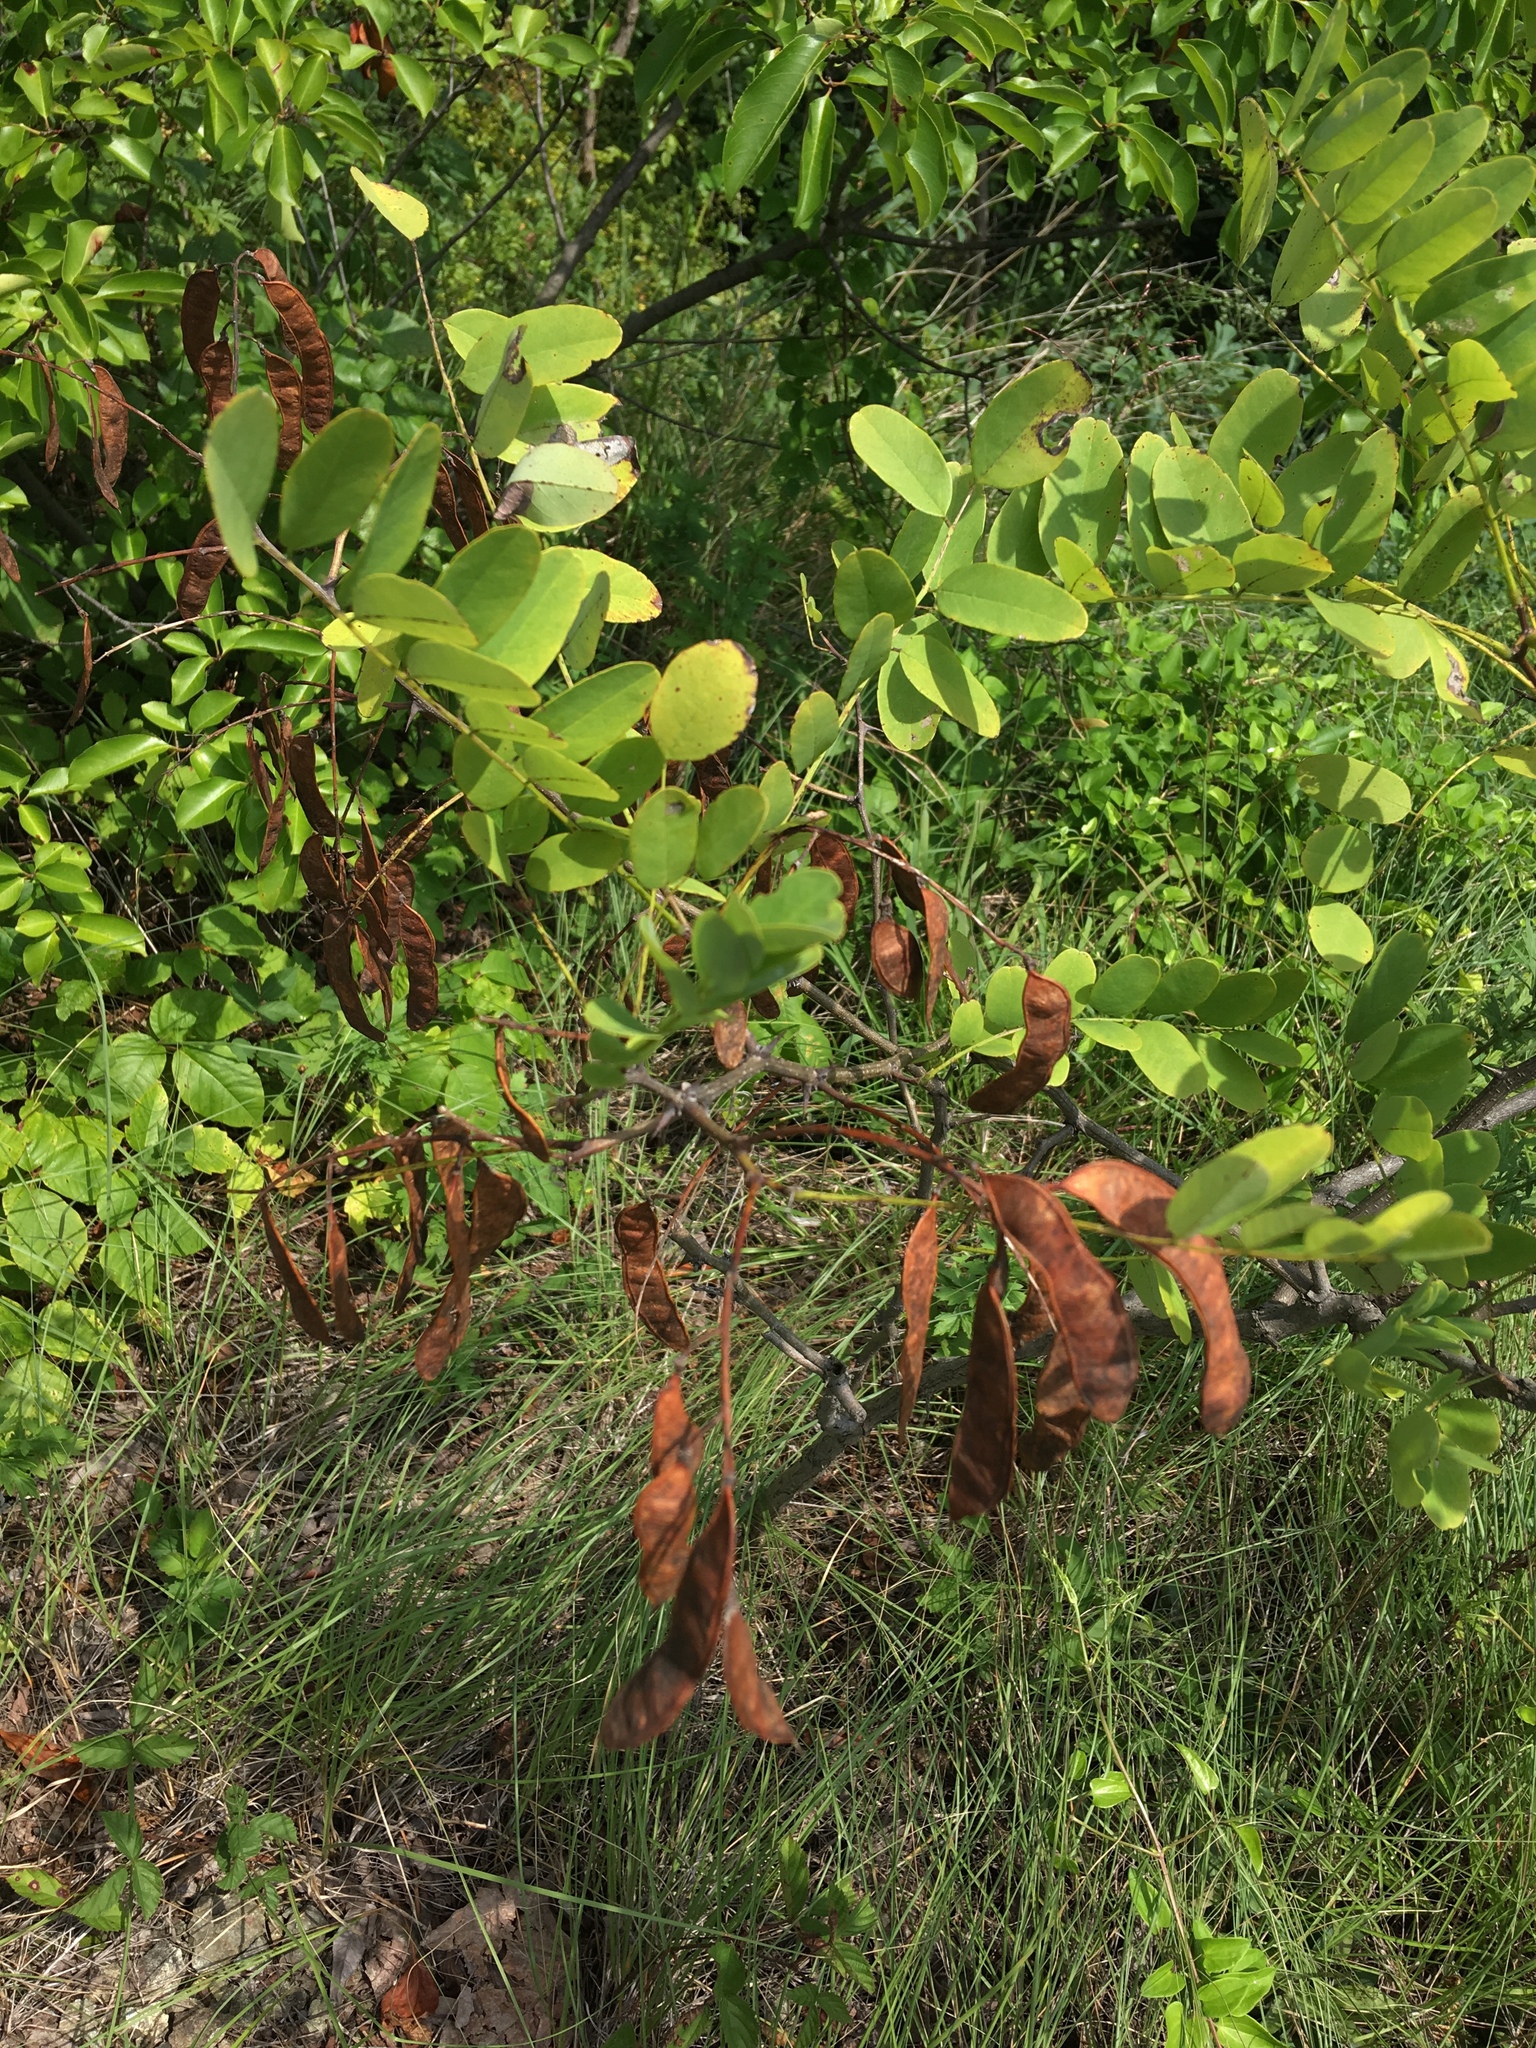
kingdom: Plantae
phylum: Tracheophyta
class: Magnoliopsida
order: Fabales
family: Fabaceae
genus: Robinia
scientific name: Robinia pseudoacacia
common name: Black locust
